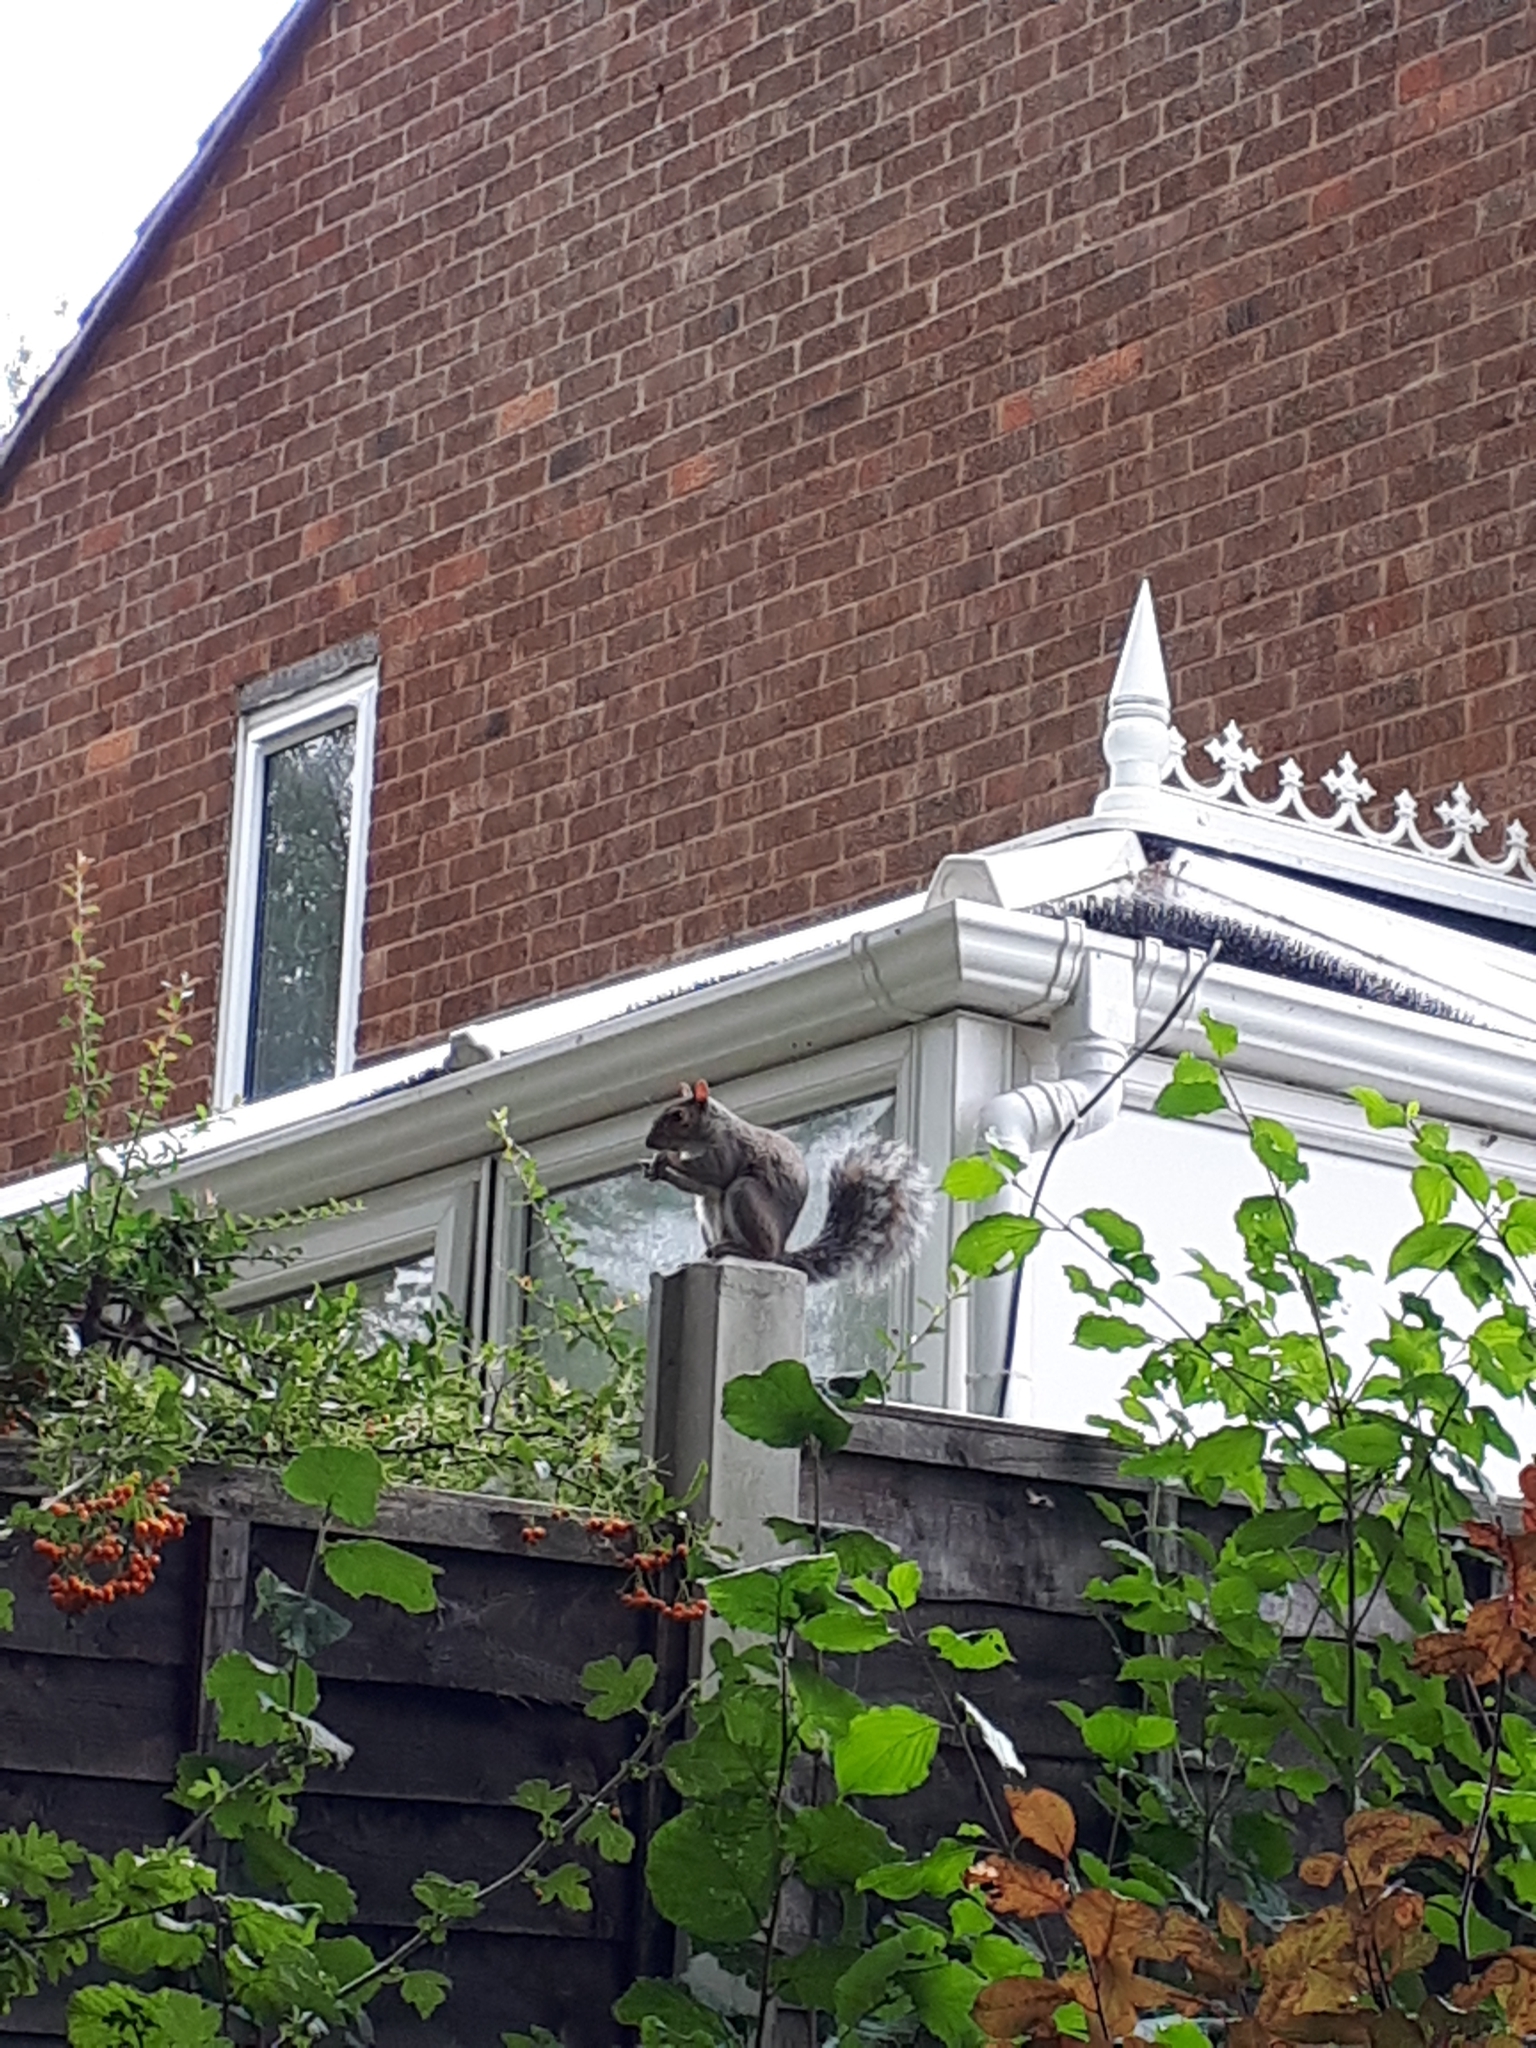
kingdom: Animalia
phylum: Chordata
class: Mammalia
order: Rodentia
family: Sciuridae
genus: Sciurus
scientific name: Sciurus carolinensis
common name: Eastern gray squirrel
